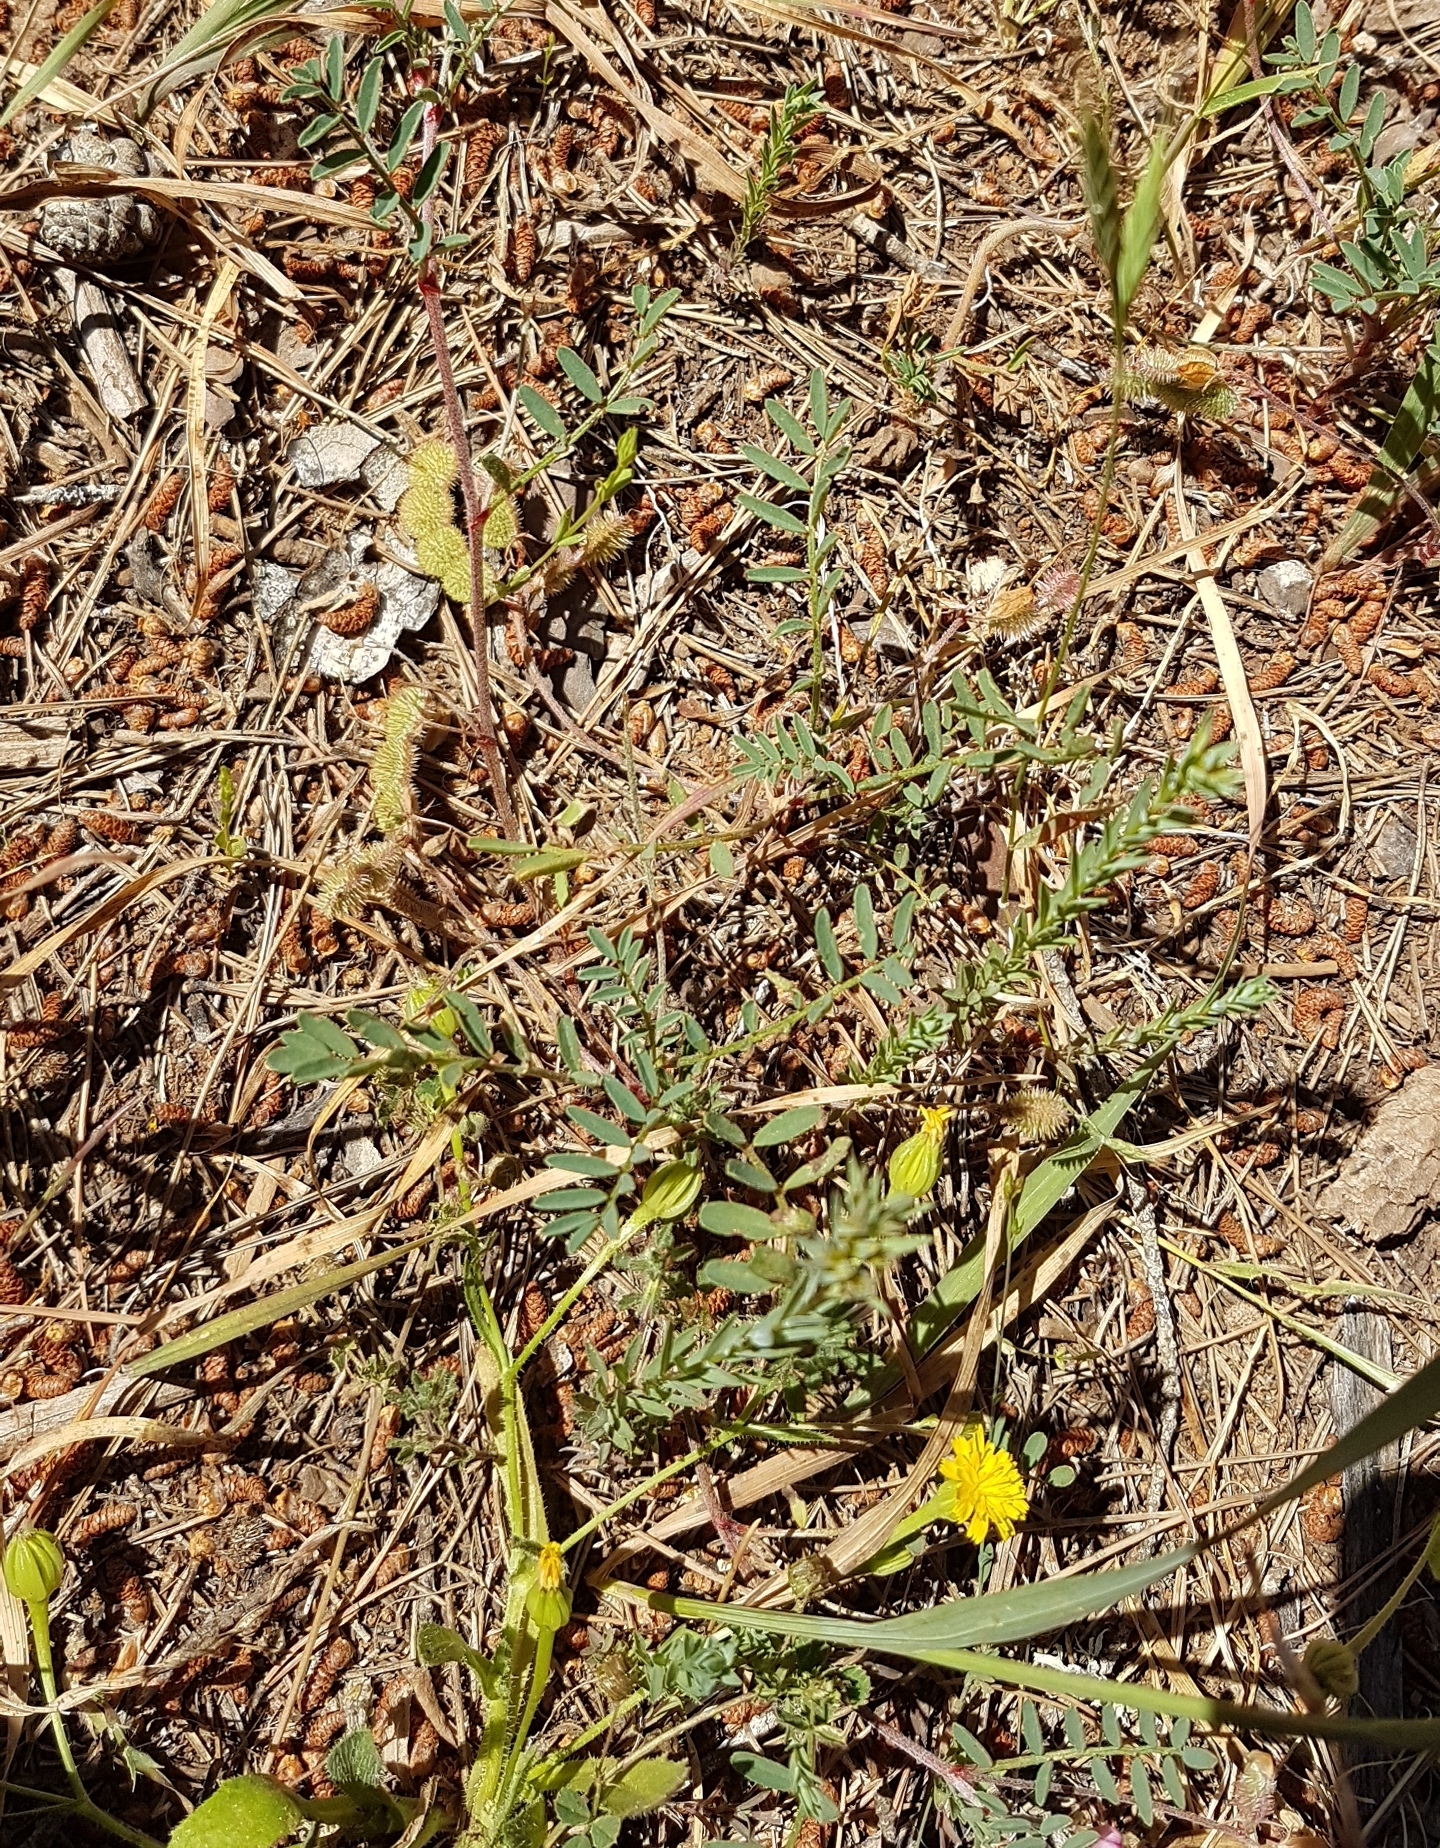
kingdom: Plantae
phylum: Tracheophyta
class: Magnoliopsida
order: Fabales
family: Fabaceae
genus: Sulla
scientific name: Sulla spinosissima
